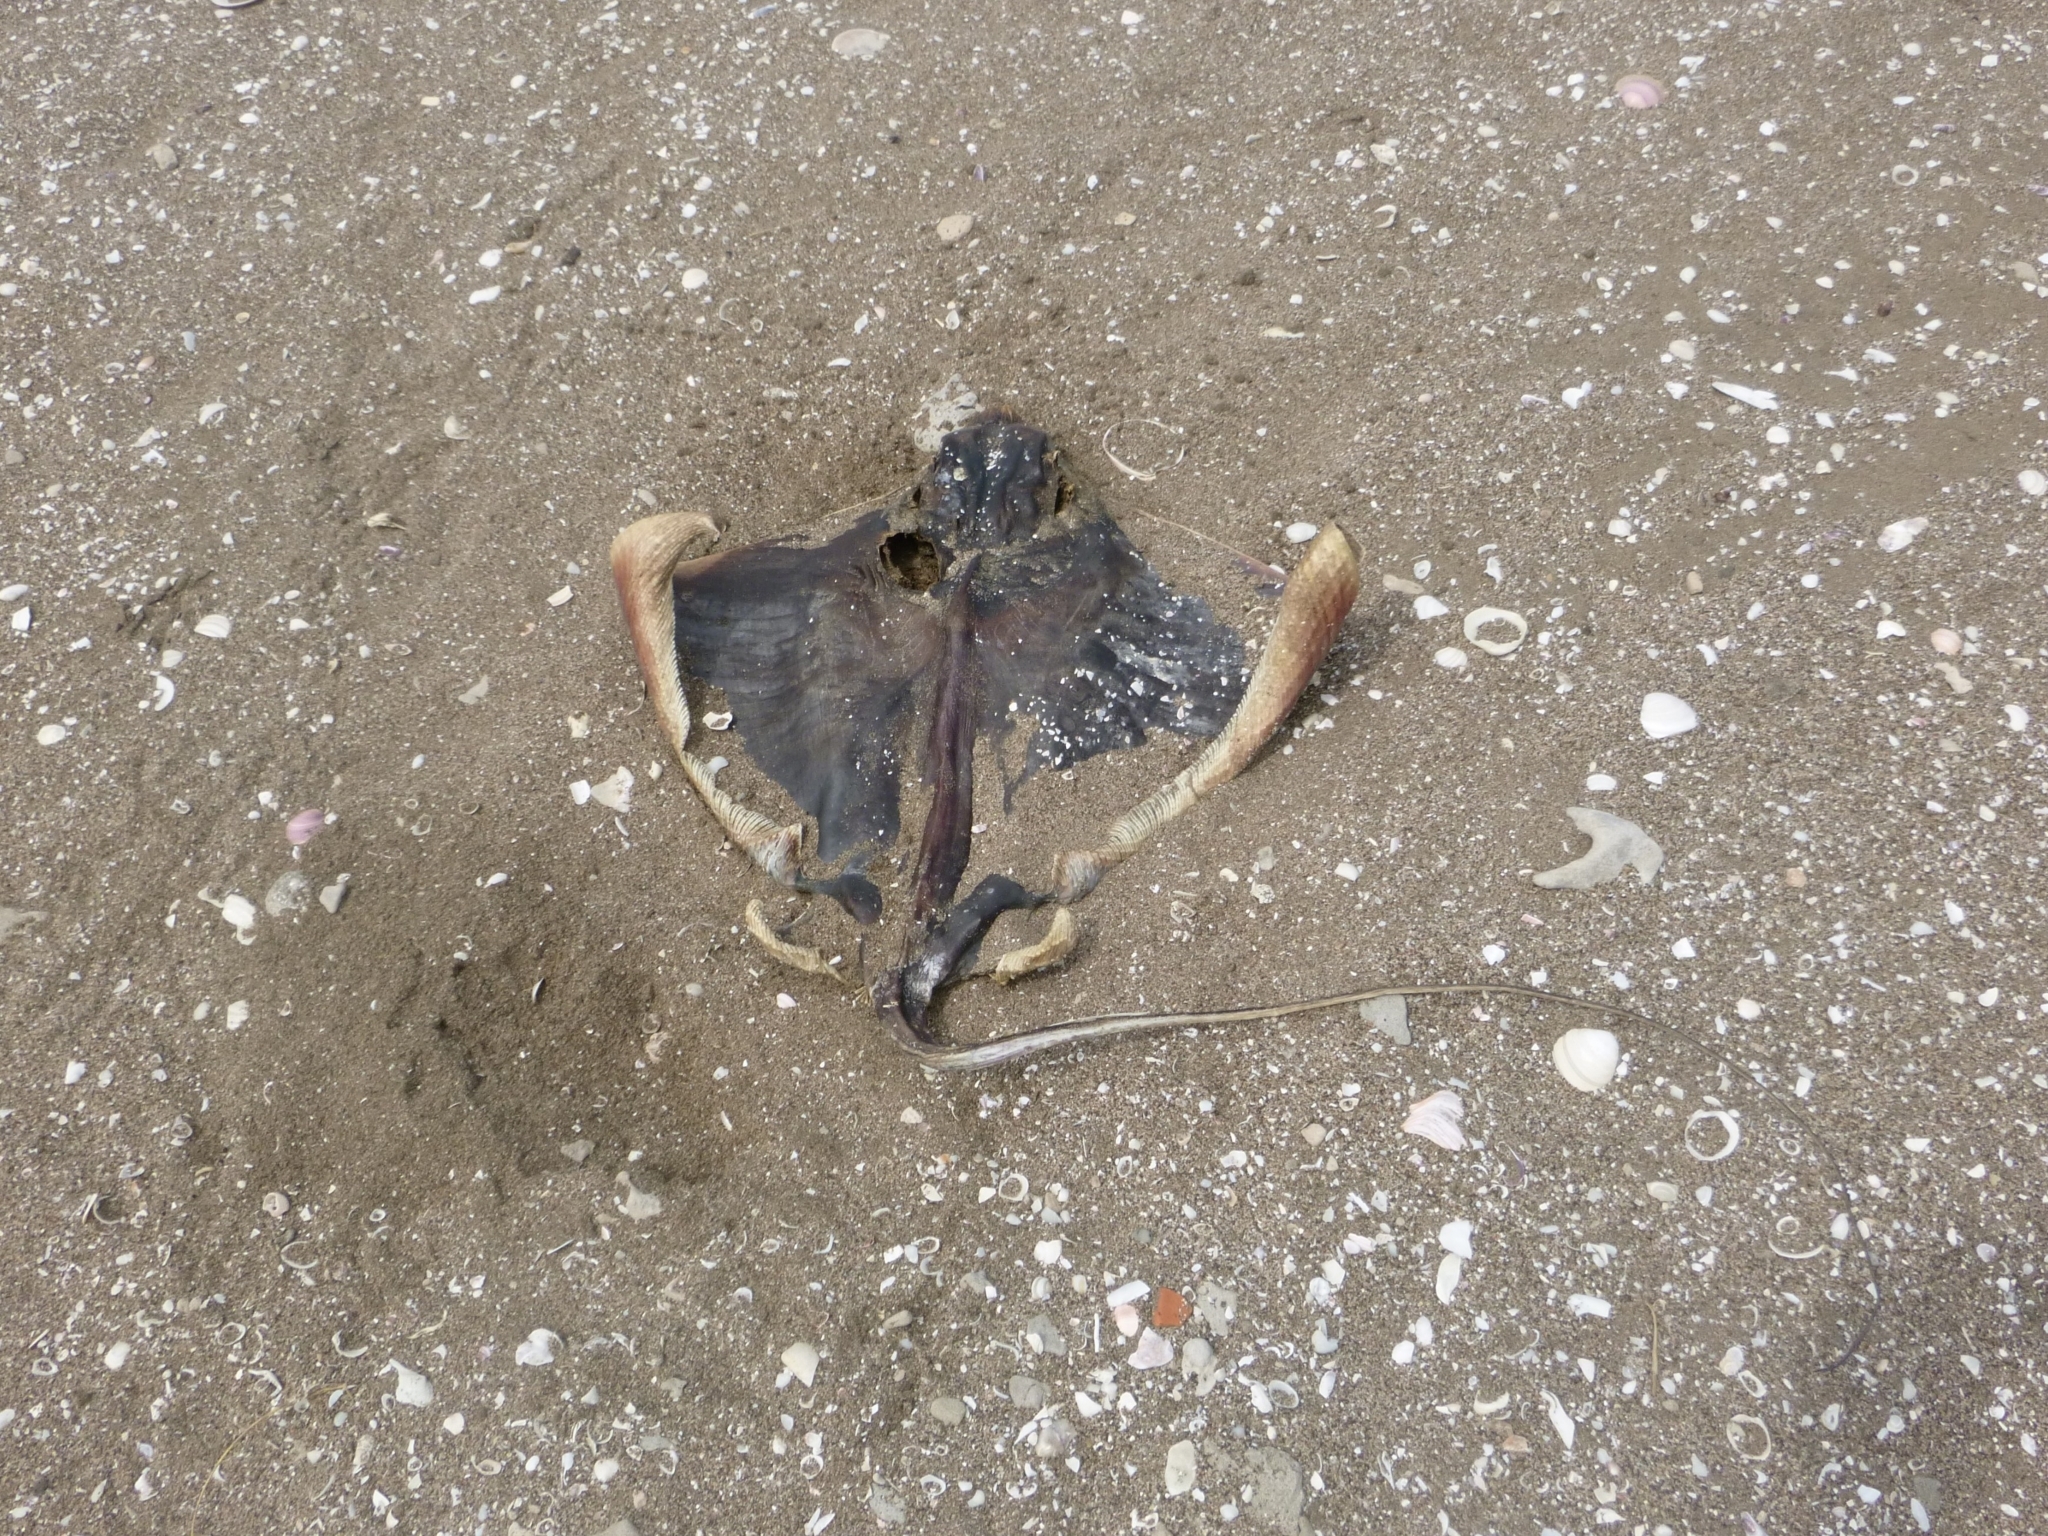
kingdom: Animalia
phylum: Chordata
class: Elasmobranchii
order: Myliobatiformes
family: Myliobatidae
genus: Myliobatis
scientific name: Myliobatis goodei
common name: Southern eagle ray
